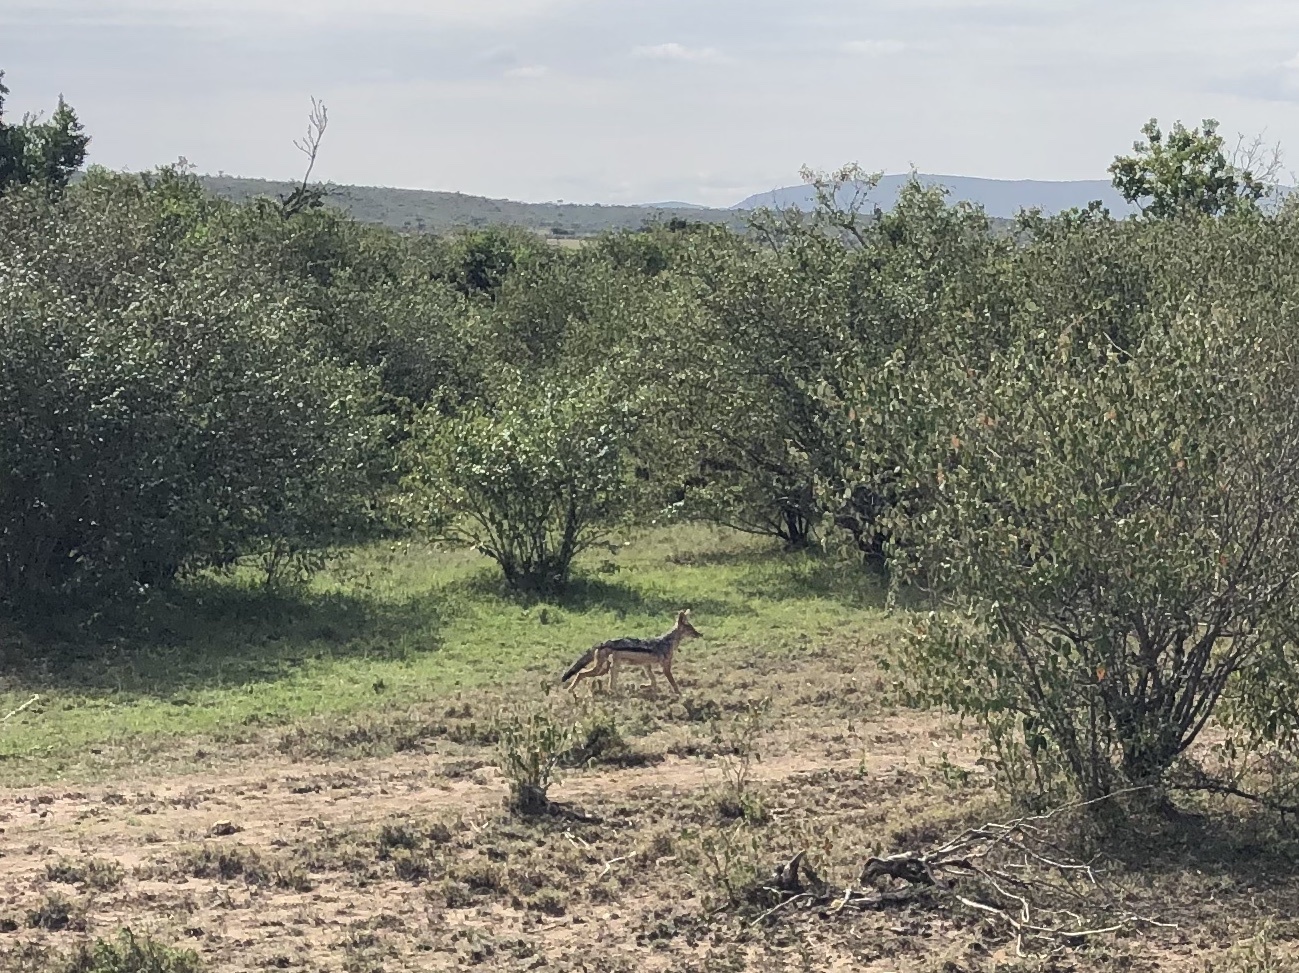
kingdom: Animalia
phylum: Chordata
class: Mammalia
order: Carnivora
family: Canidae
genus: Lupulella
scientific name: Lupulella
